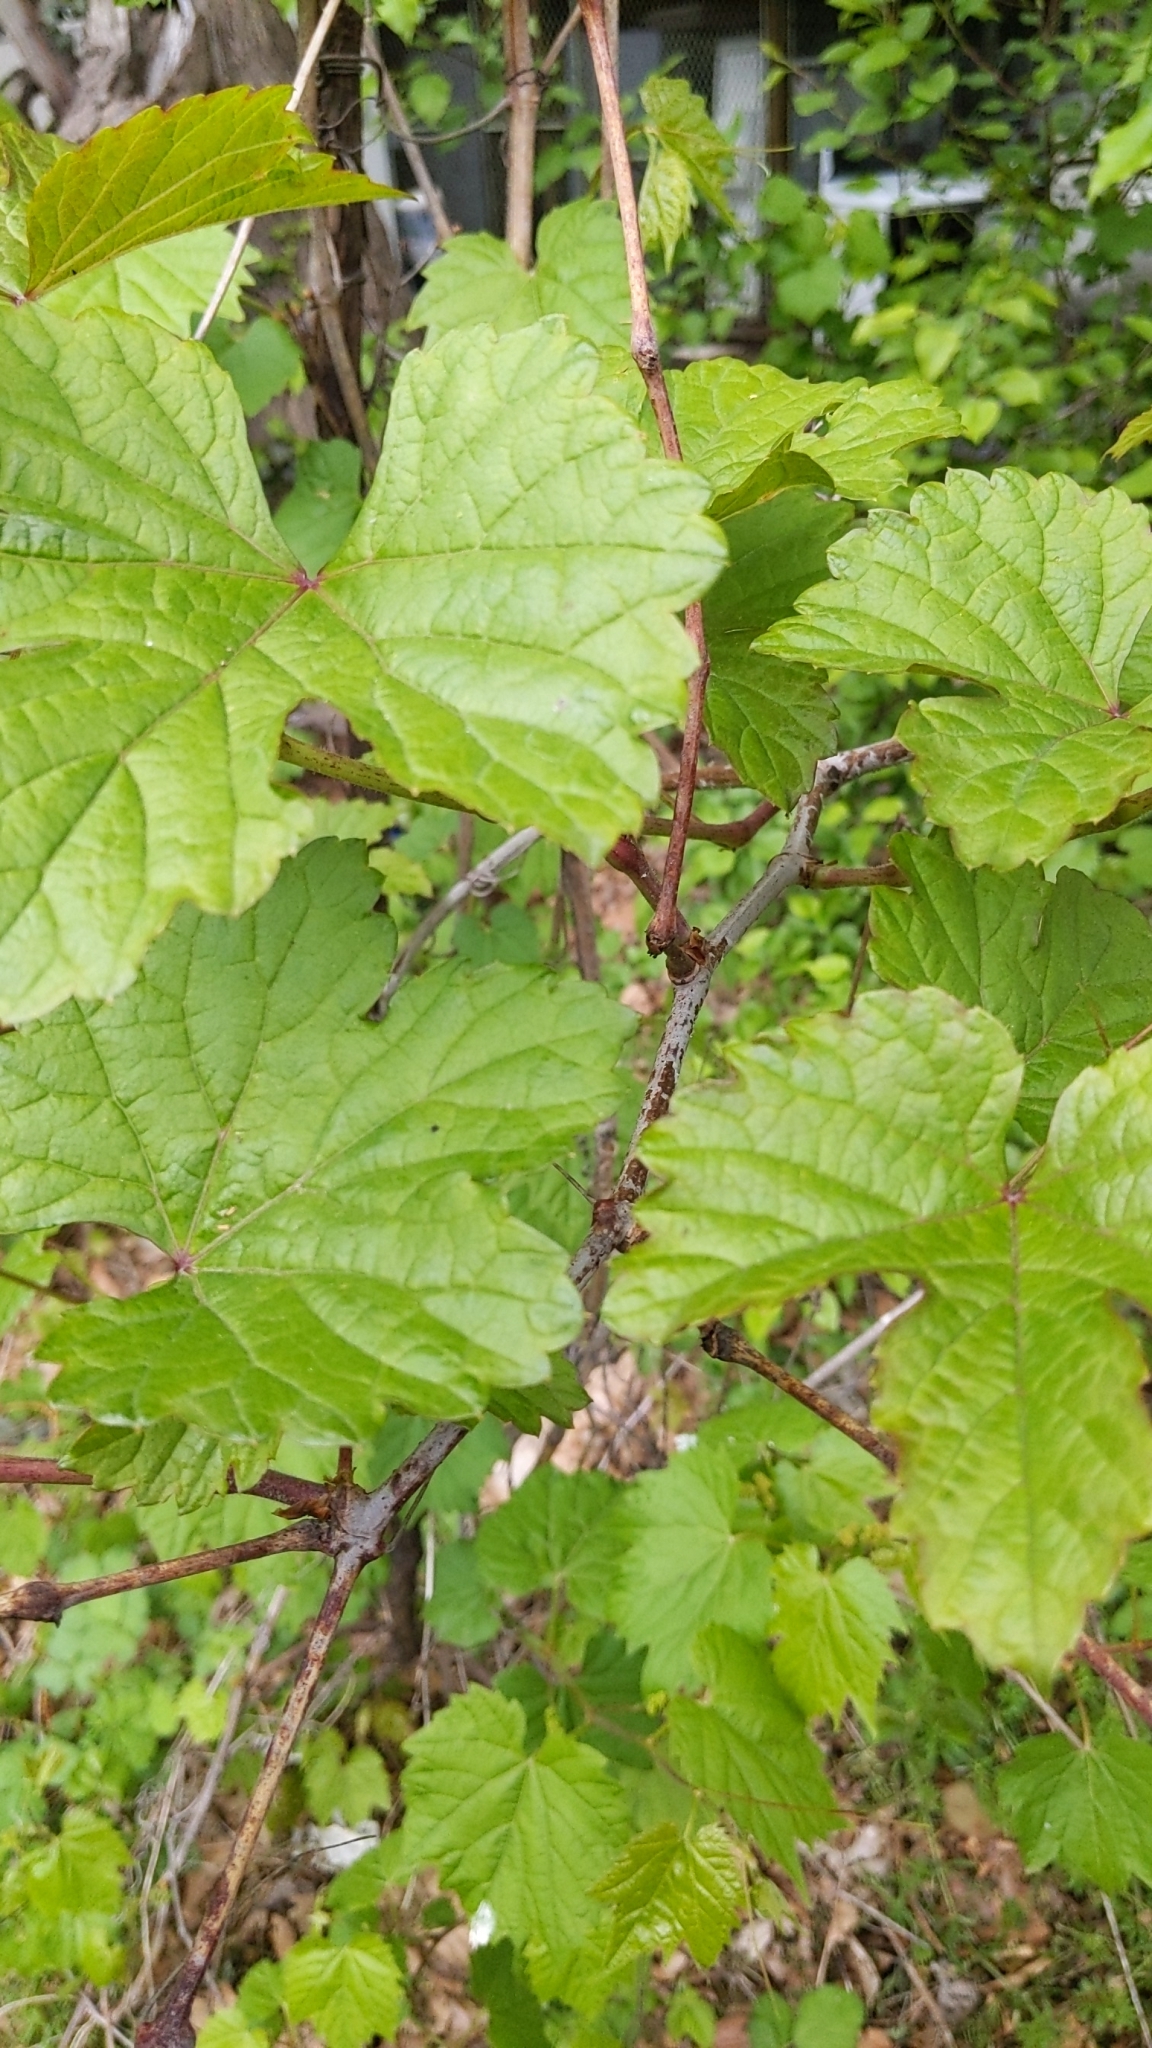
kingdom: Plantae
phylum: Tracheophyta
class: Magnoliopsida
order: Vitales
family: Vitaceae
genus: Ampelopsis
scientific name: Ampelopsis glandulosa
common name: Amur peppervine
